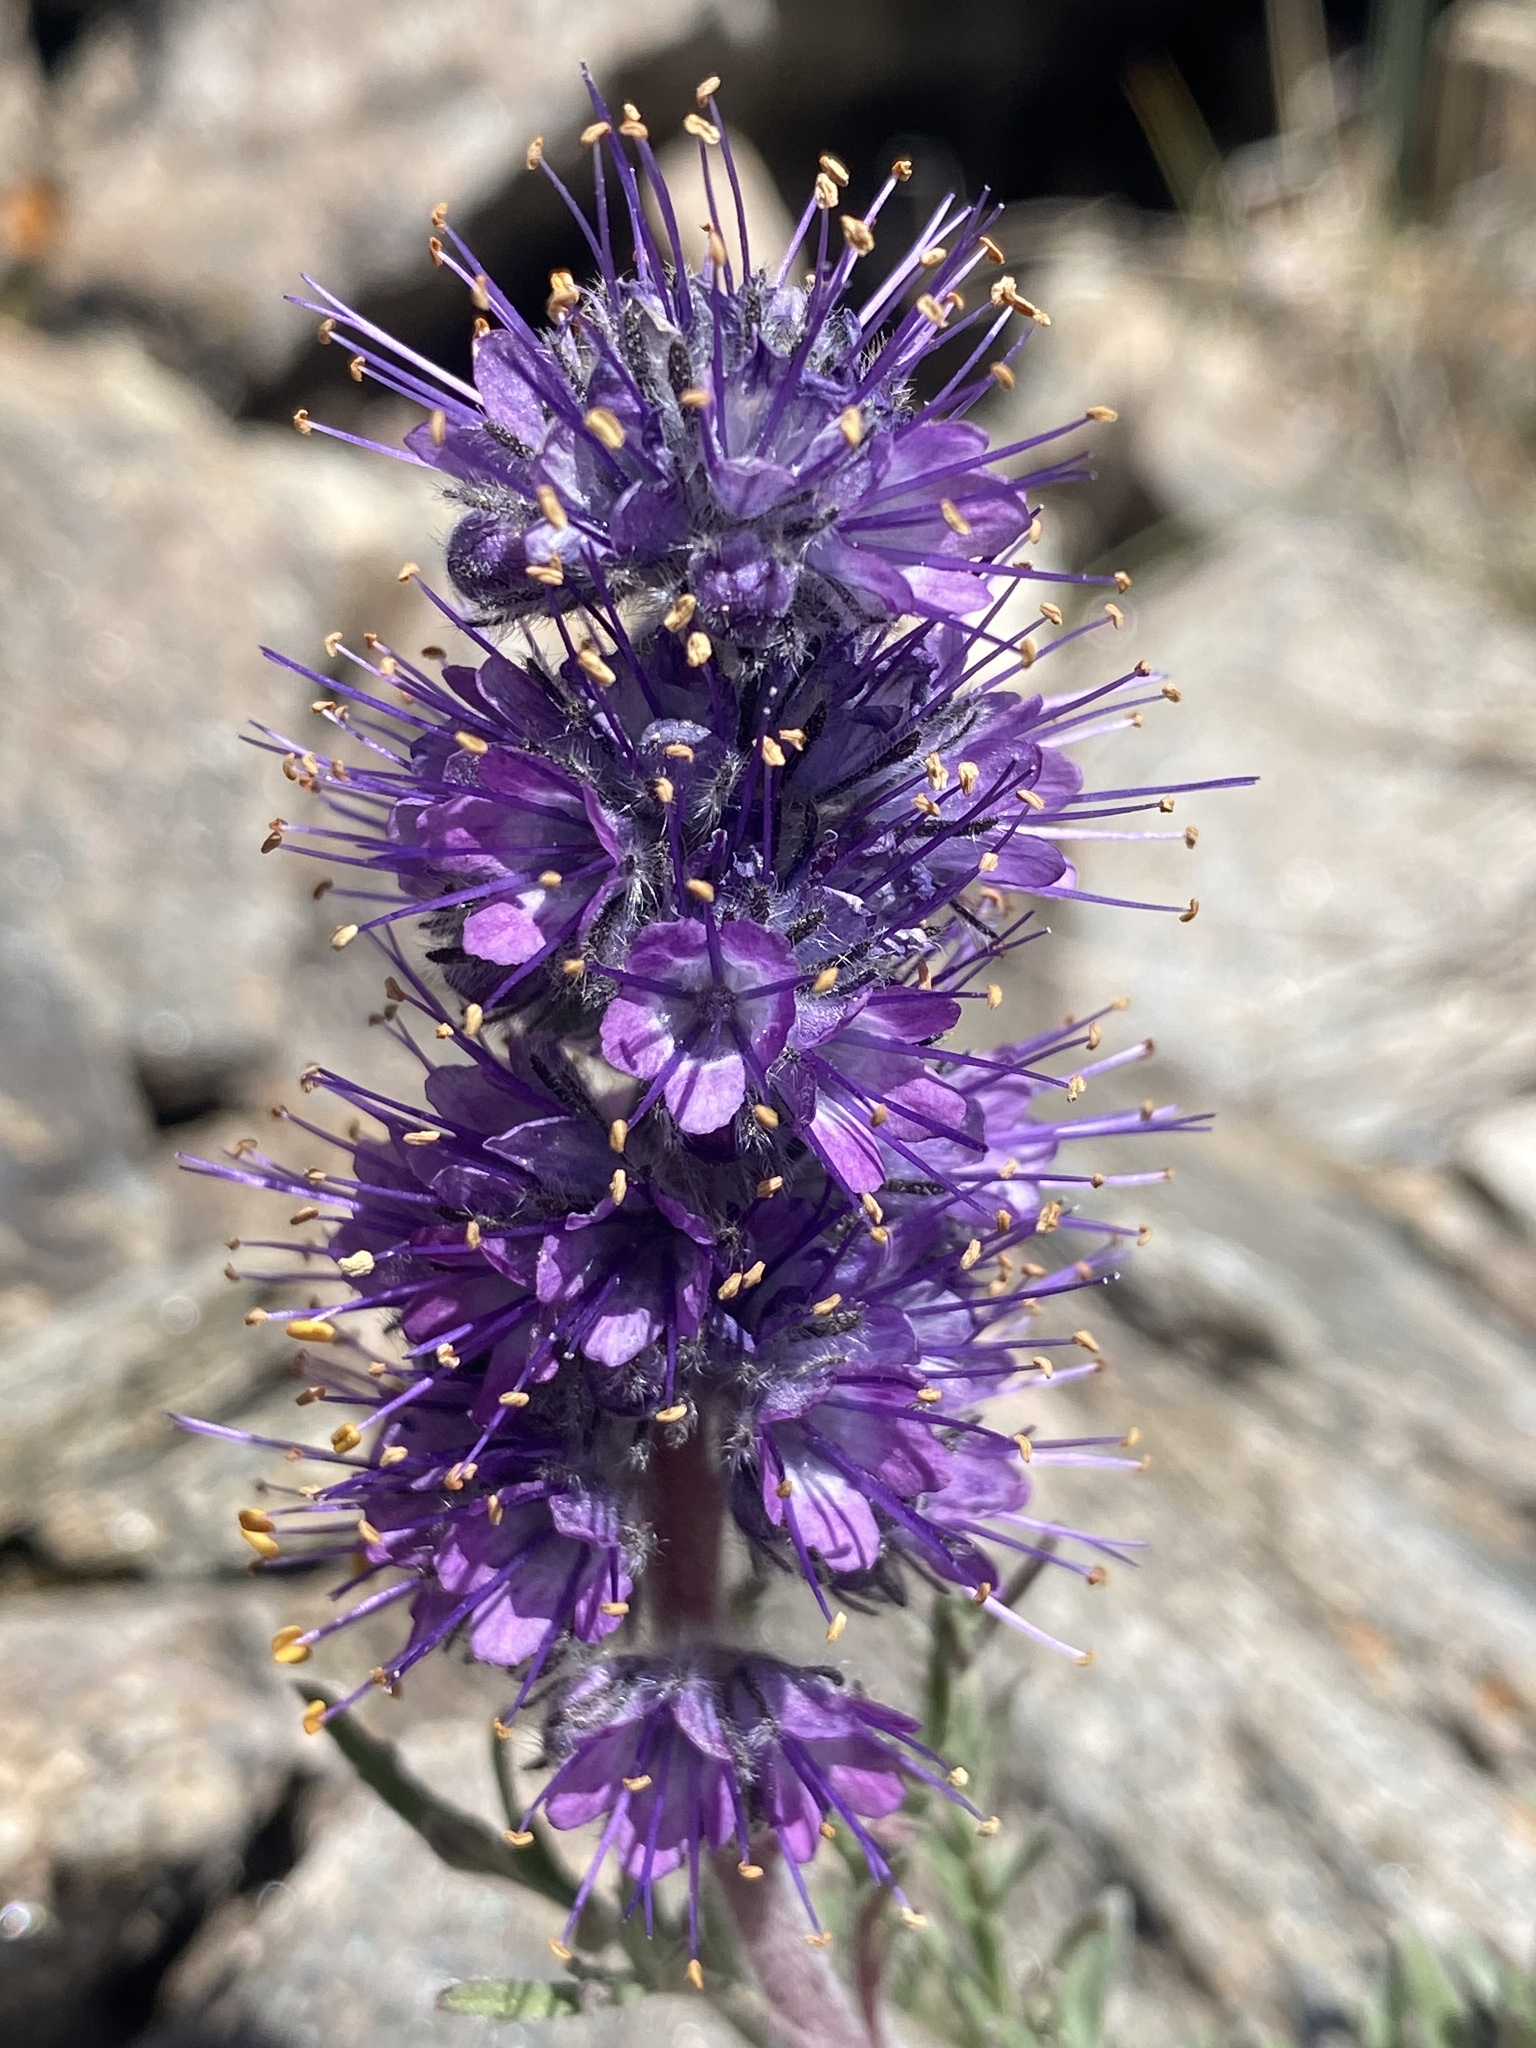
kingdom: Plantae
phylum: Tracheophyta
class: Magnoliopsida
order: Boraginales
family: Hydrophyllaceae
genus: Phacelia
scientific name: Phacelia sericea
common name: Silky phacelia
